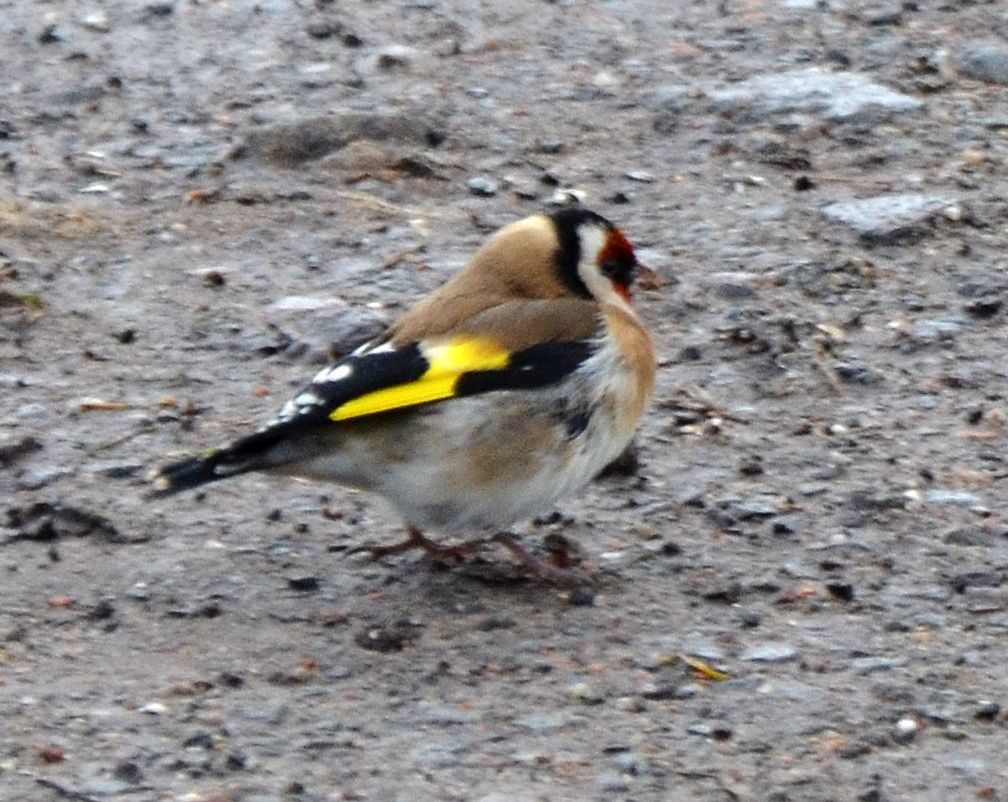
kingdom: Animalia
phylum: Chordata
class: Aves
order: Passeriformes
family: Fringillidae
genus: Carduelis
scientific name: Carduelis carduelis
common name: European goldfinch
